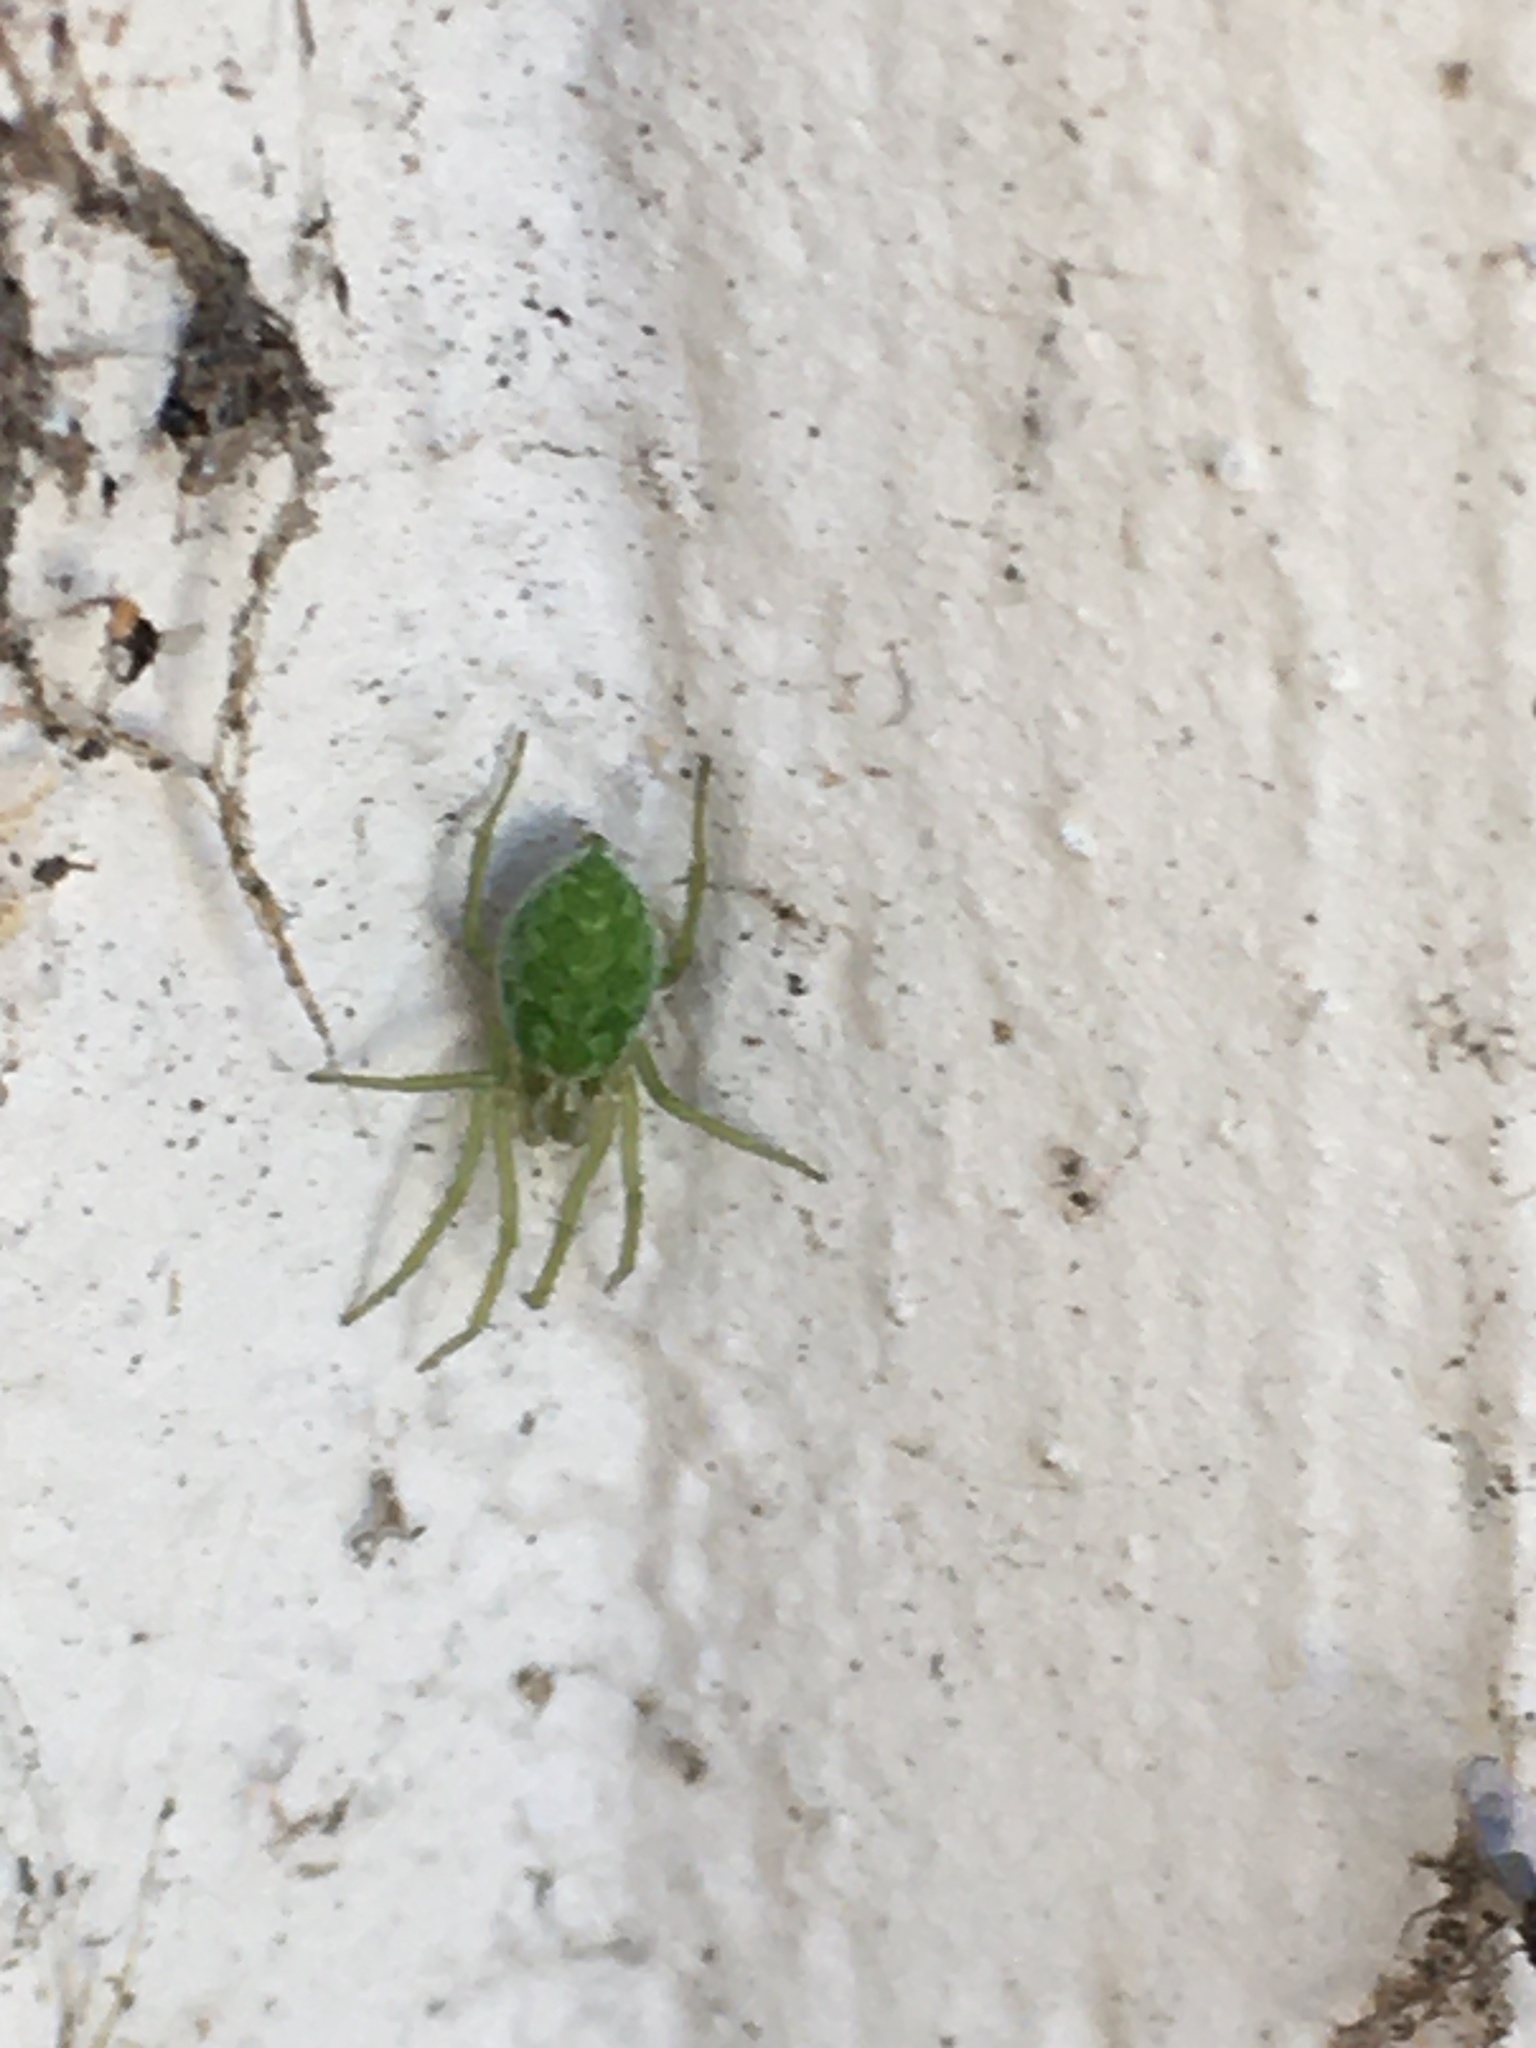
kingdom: Animalia
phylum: Arthropoda
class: Arachnida
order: Araneae
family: Dictynidae
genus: Nigma
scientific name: Nigma walckenaeri
